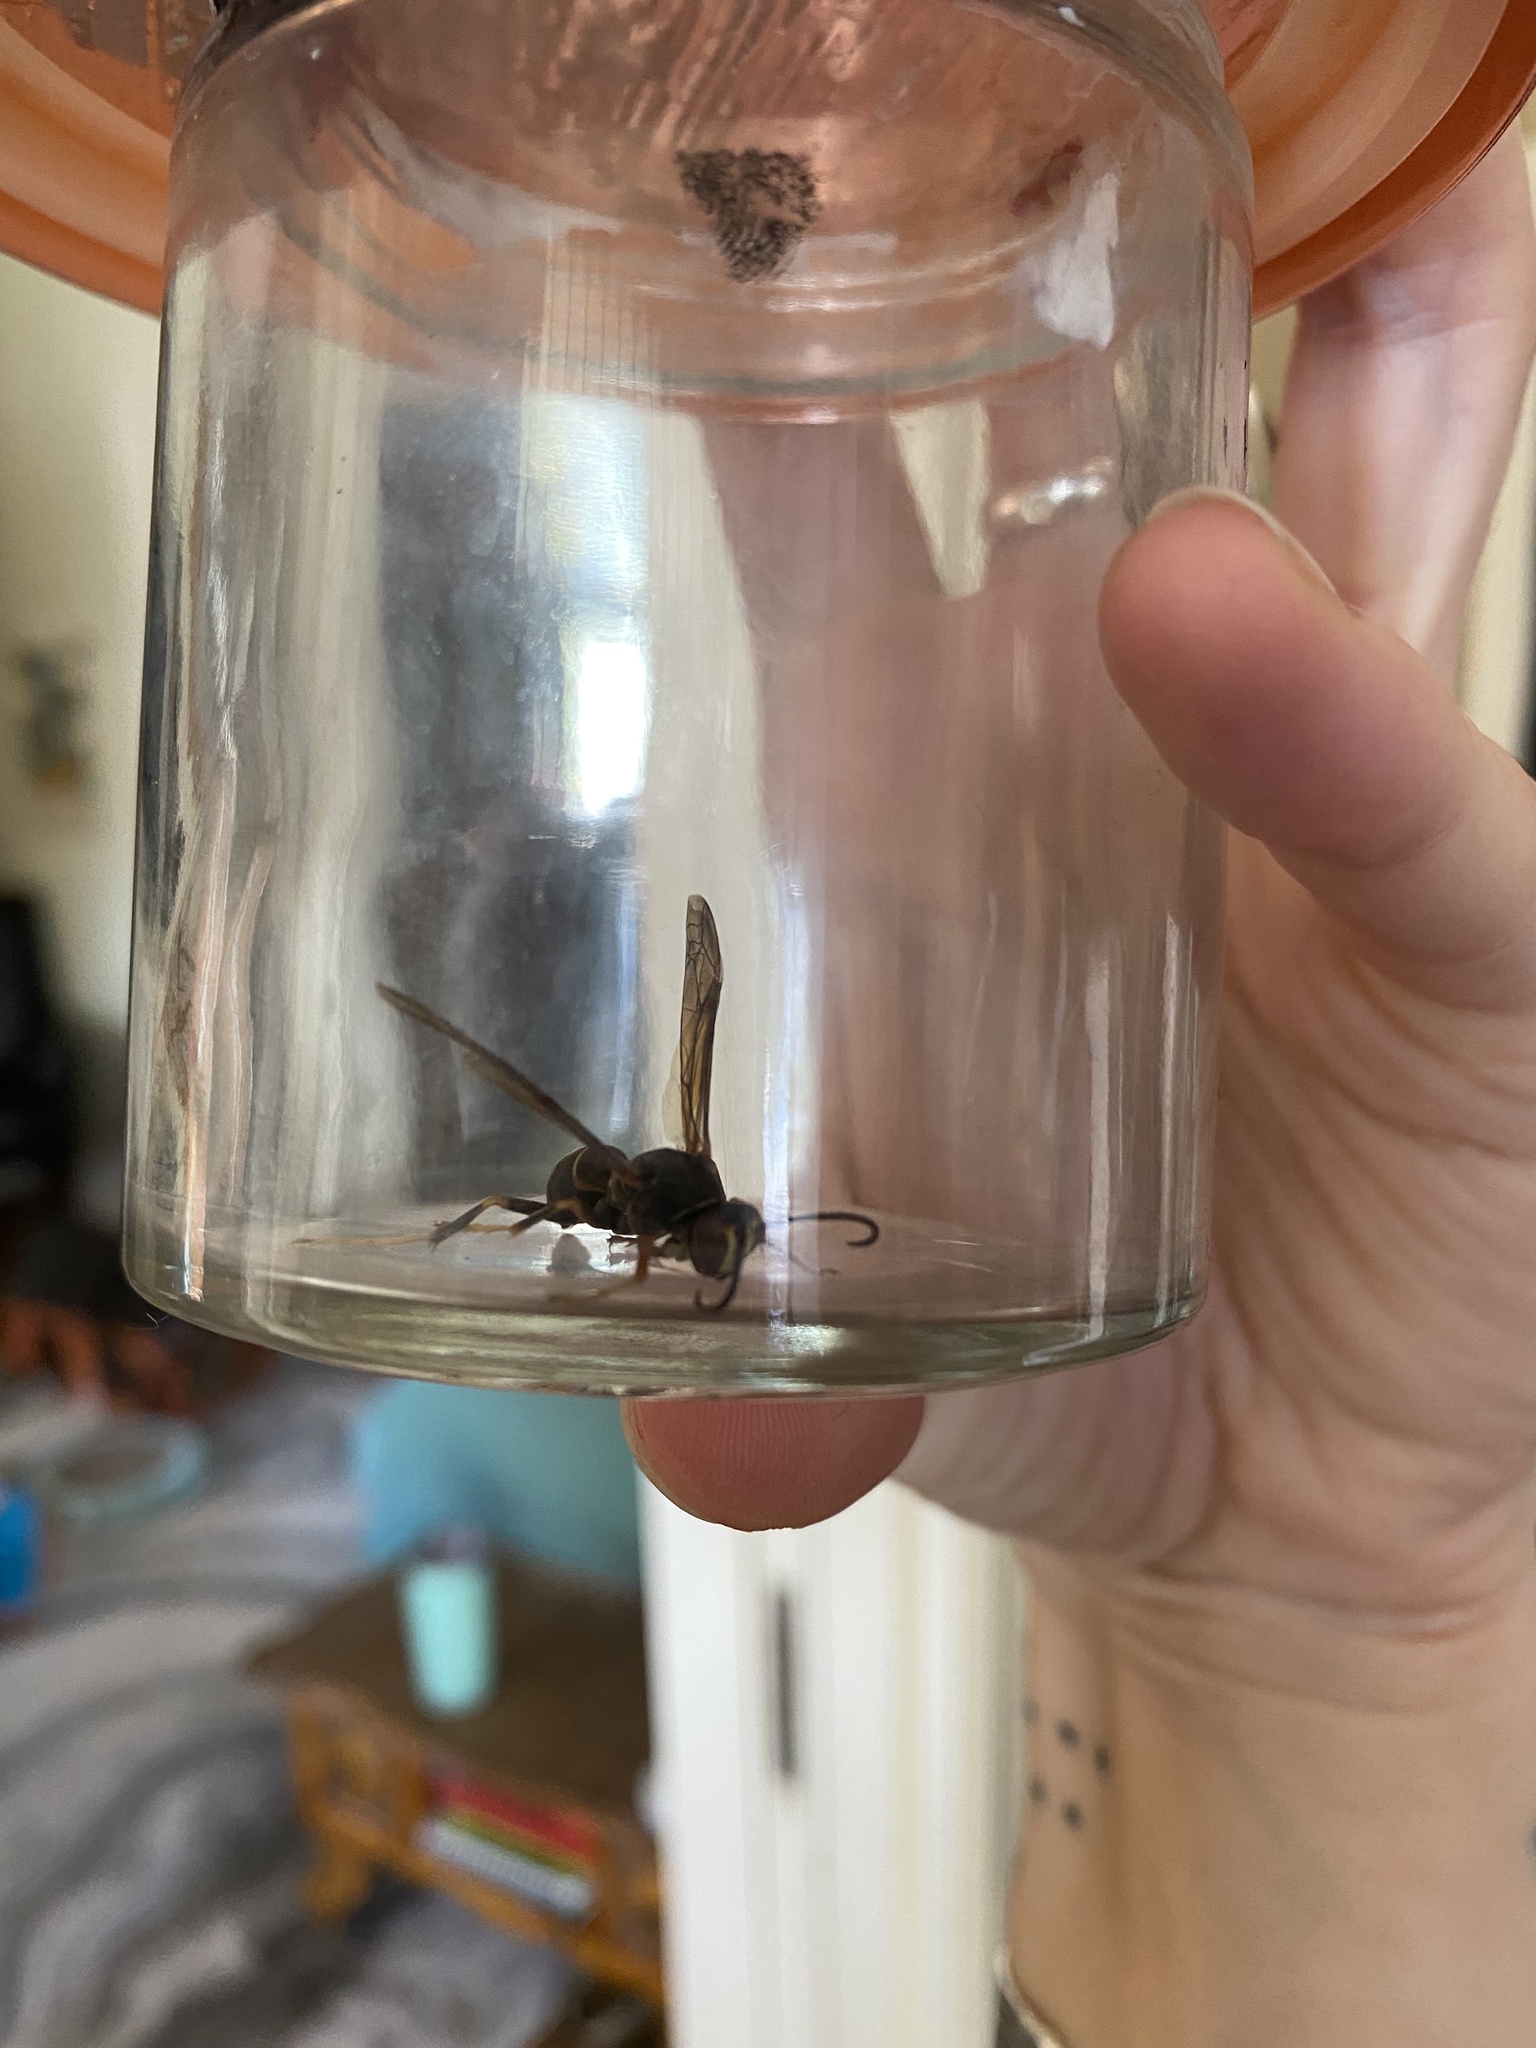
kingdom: Animalia
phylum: Arthropoda
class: Insecta
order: Hymenoptera
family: Eumenidae
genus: Polistes
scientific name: Polistes fuscatus
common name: Dark paper wasp
